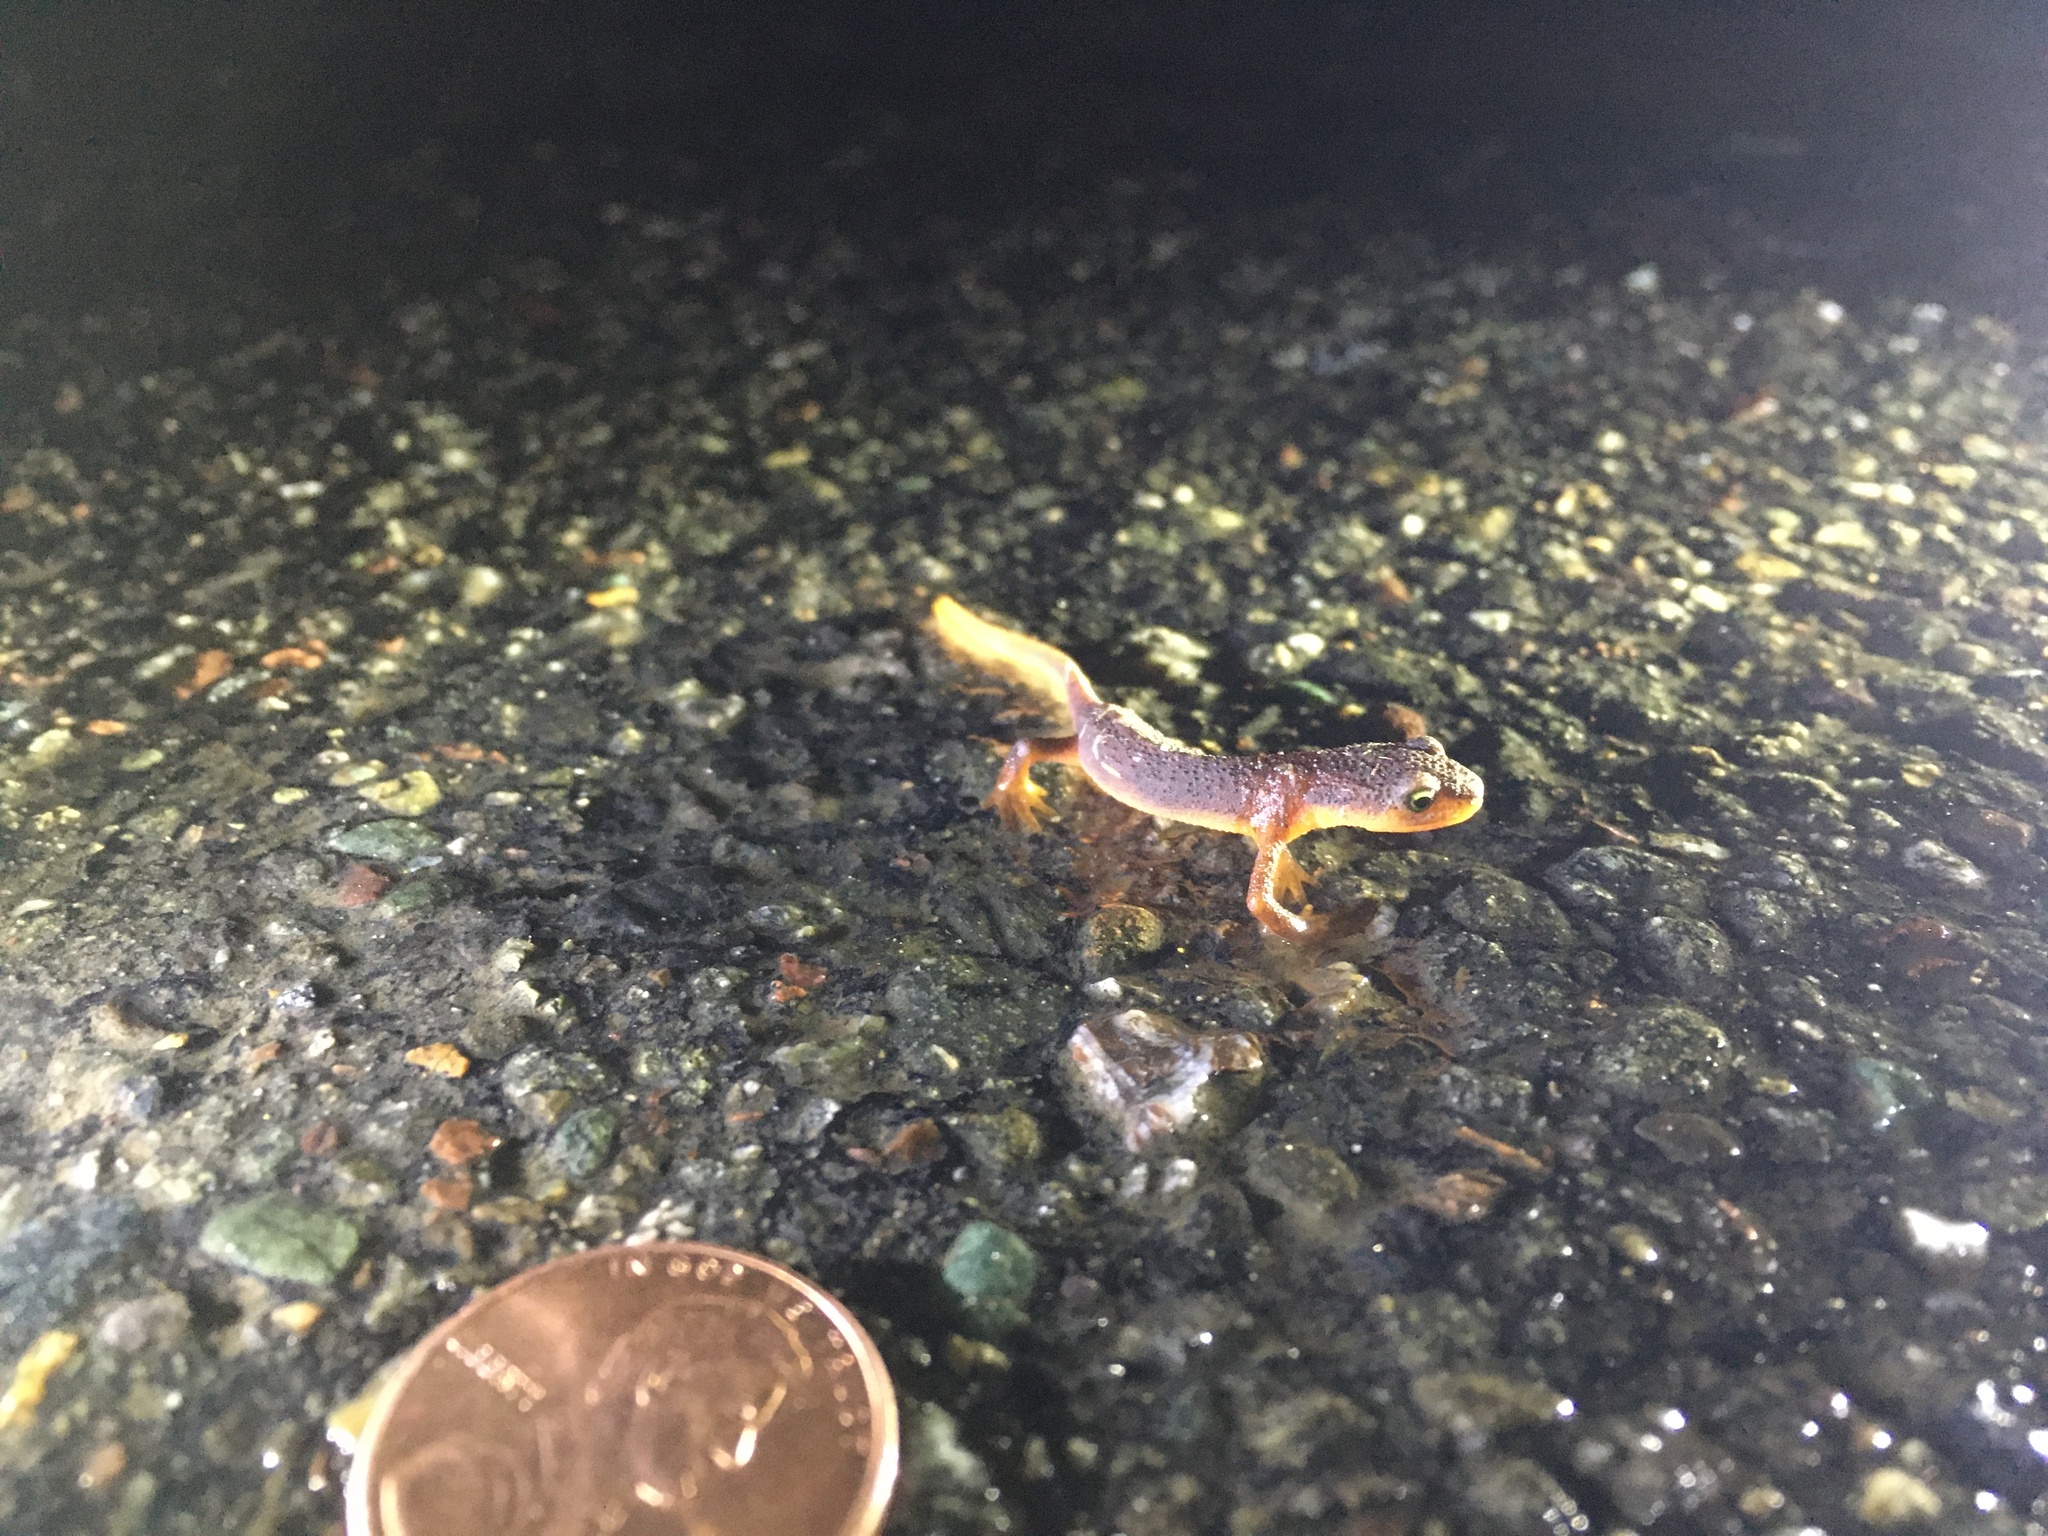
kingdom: Animalia
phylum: Chordata
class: Amphibia
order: Caudata
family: Salamandridae
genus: Taricha
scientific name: Taricha torosa
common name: California newt
